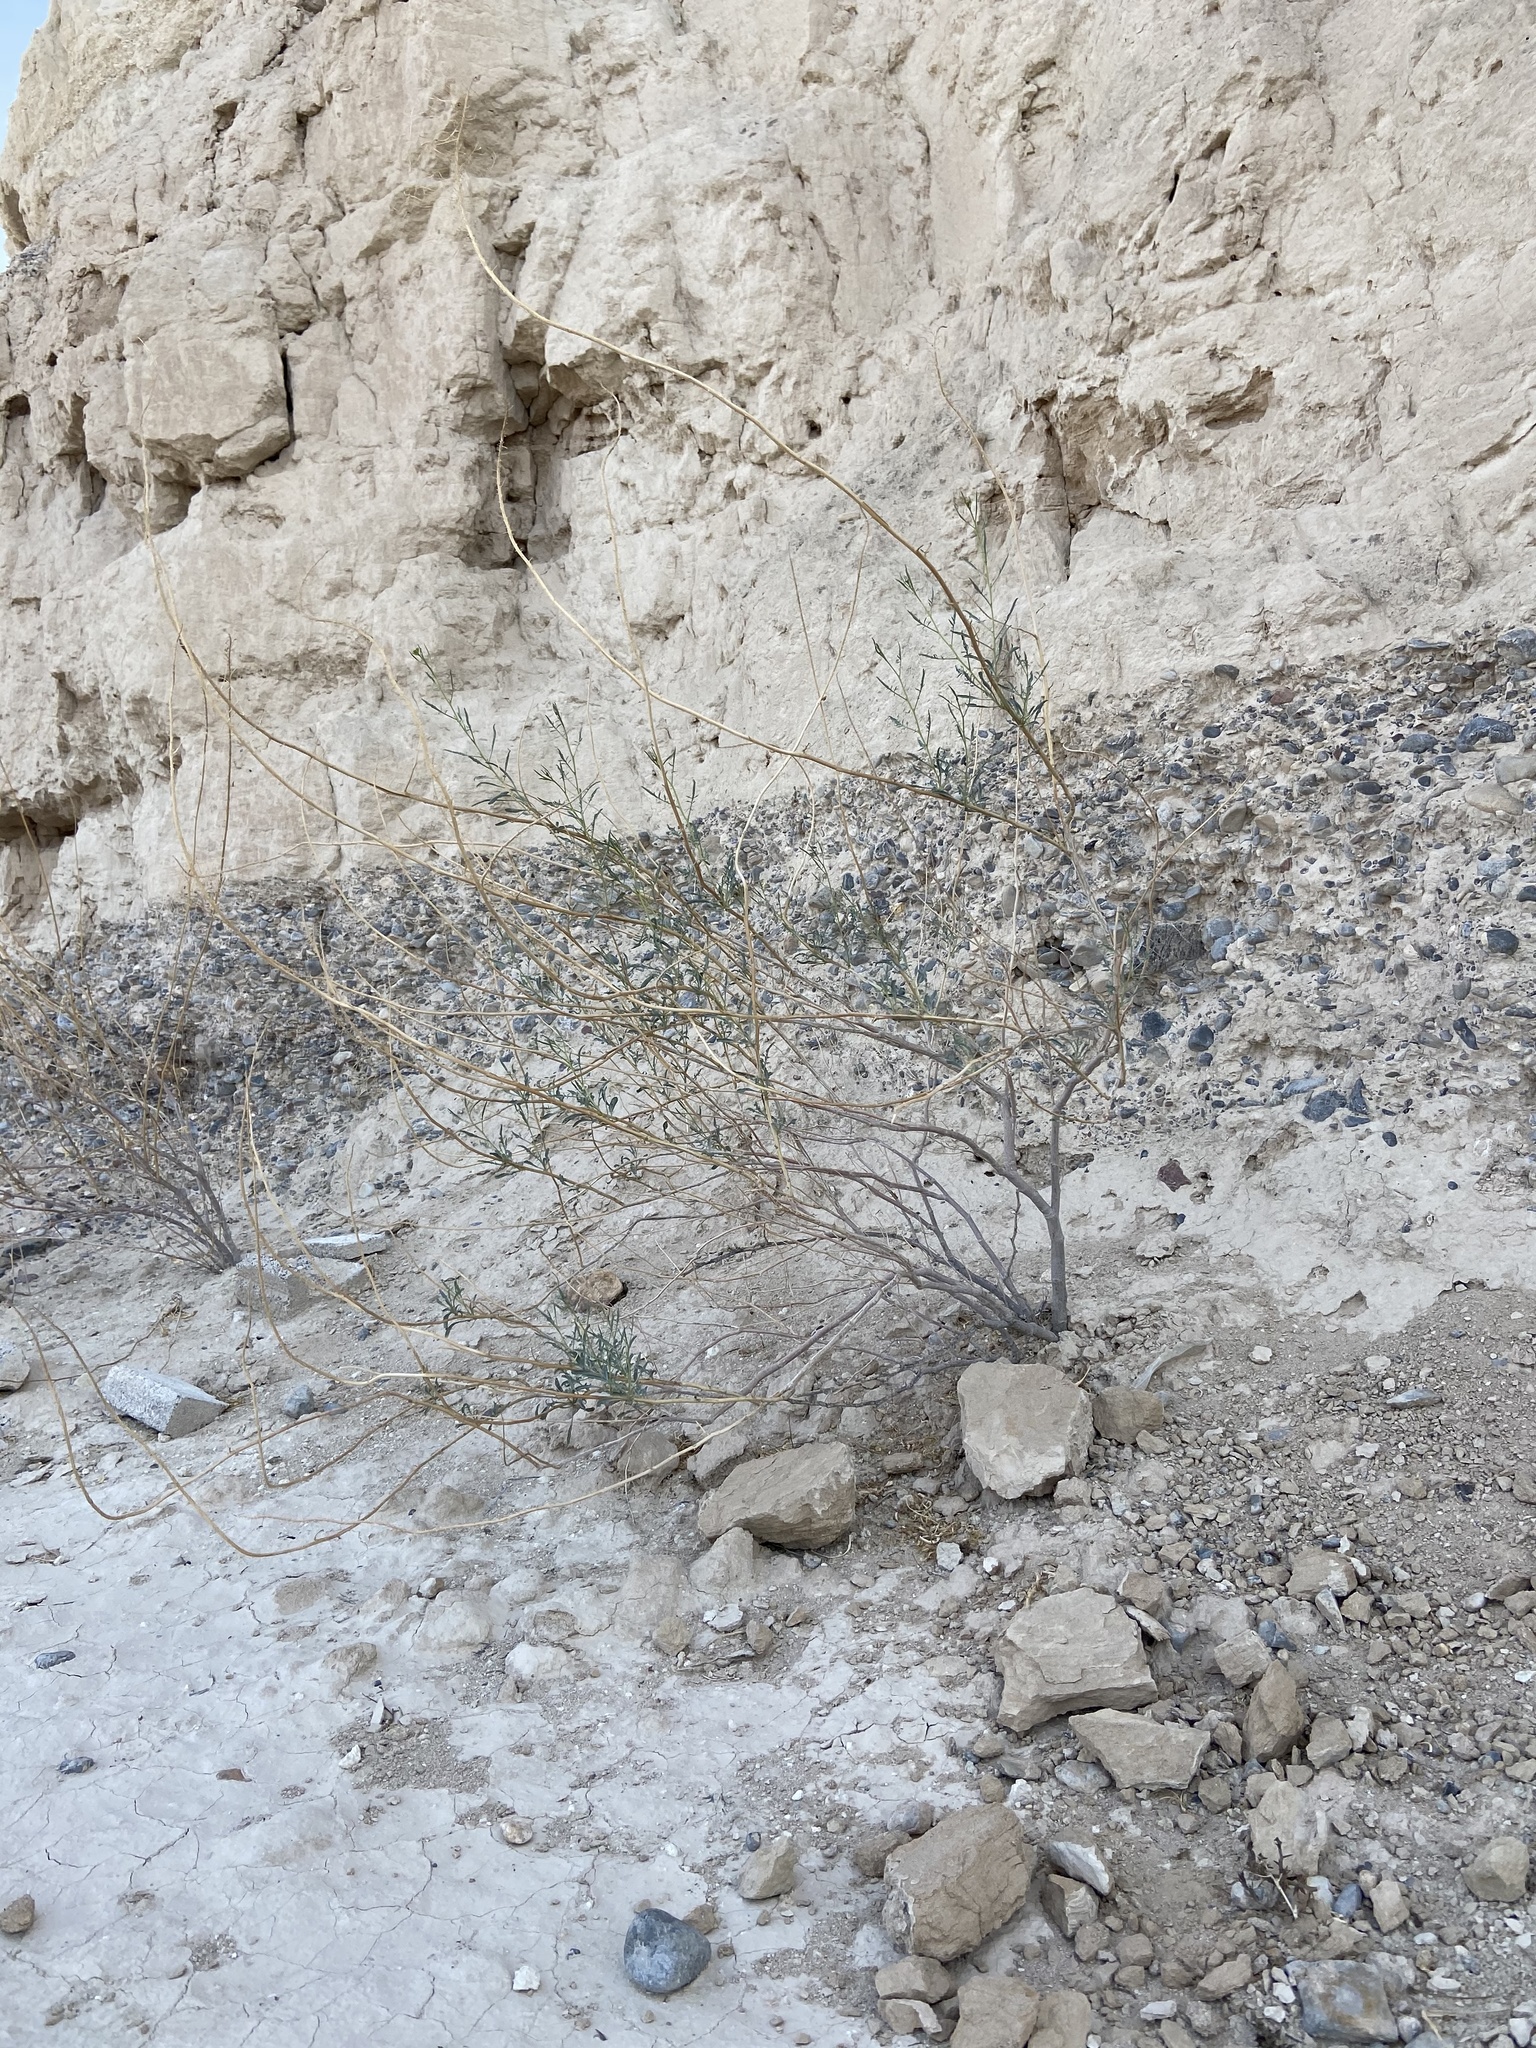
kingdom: Plantae
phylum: Tracheophyta
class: Magnoliopsida
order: Brassicales
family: Brassicaceae
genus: Stanleya
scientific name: Stanleya pinnata
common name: Prince's-plume
